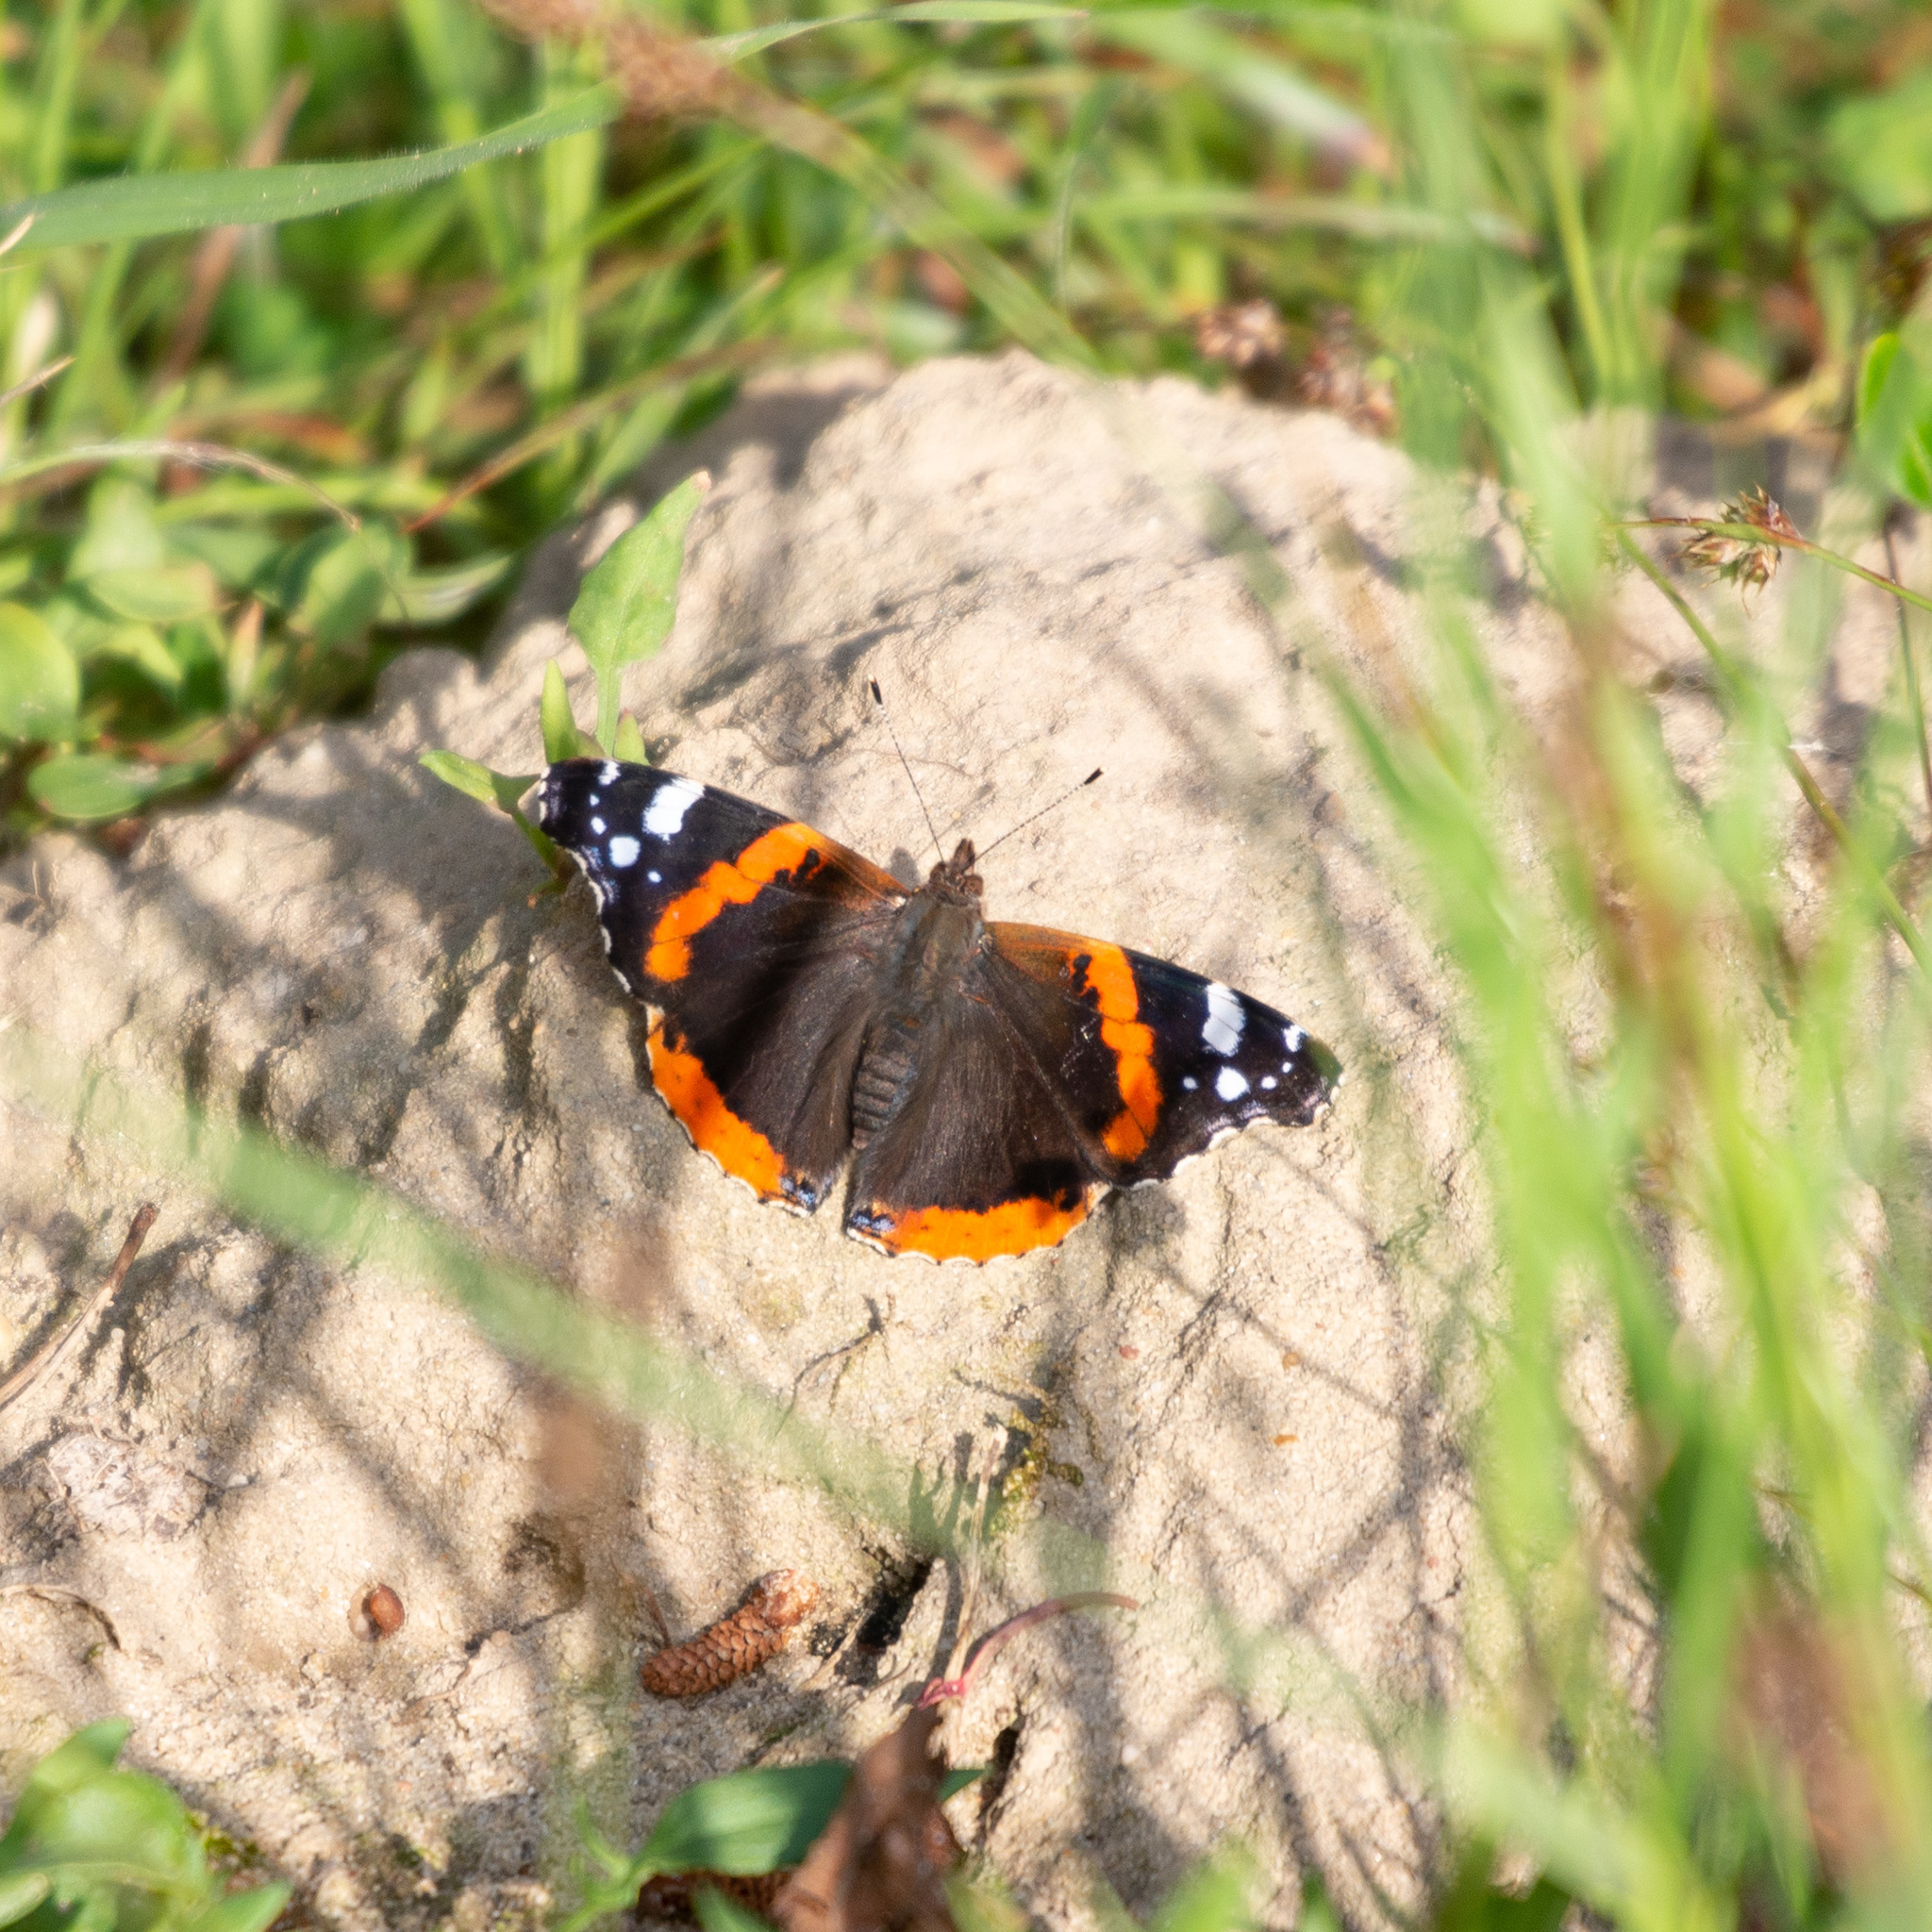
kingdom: Animalia
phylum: Arthropoda
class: Insecta
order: Lepidoptera
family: Nymphalidae
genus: Vanessa
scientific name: Vanessa atalanta
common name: Red admiral
